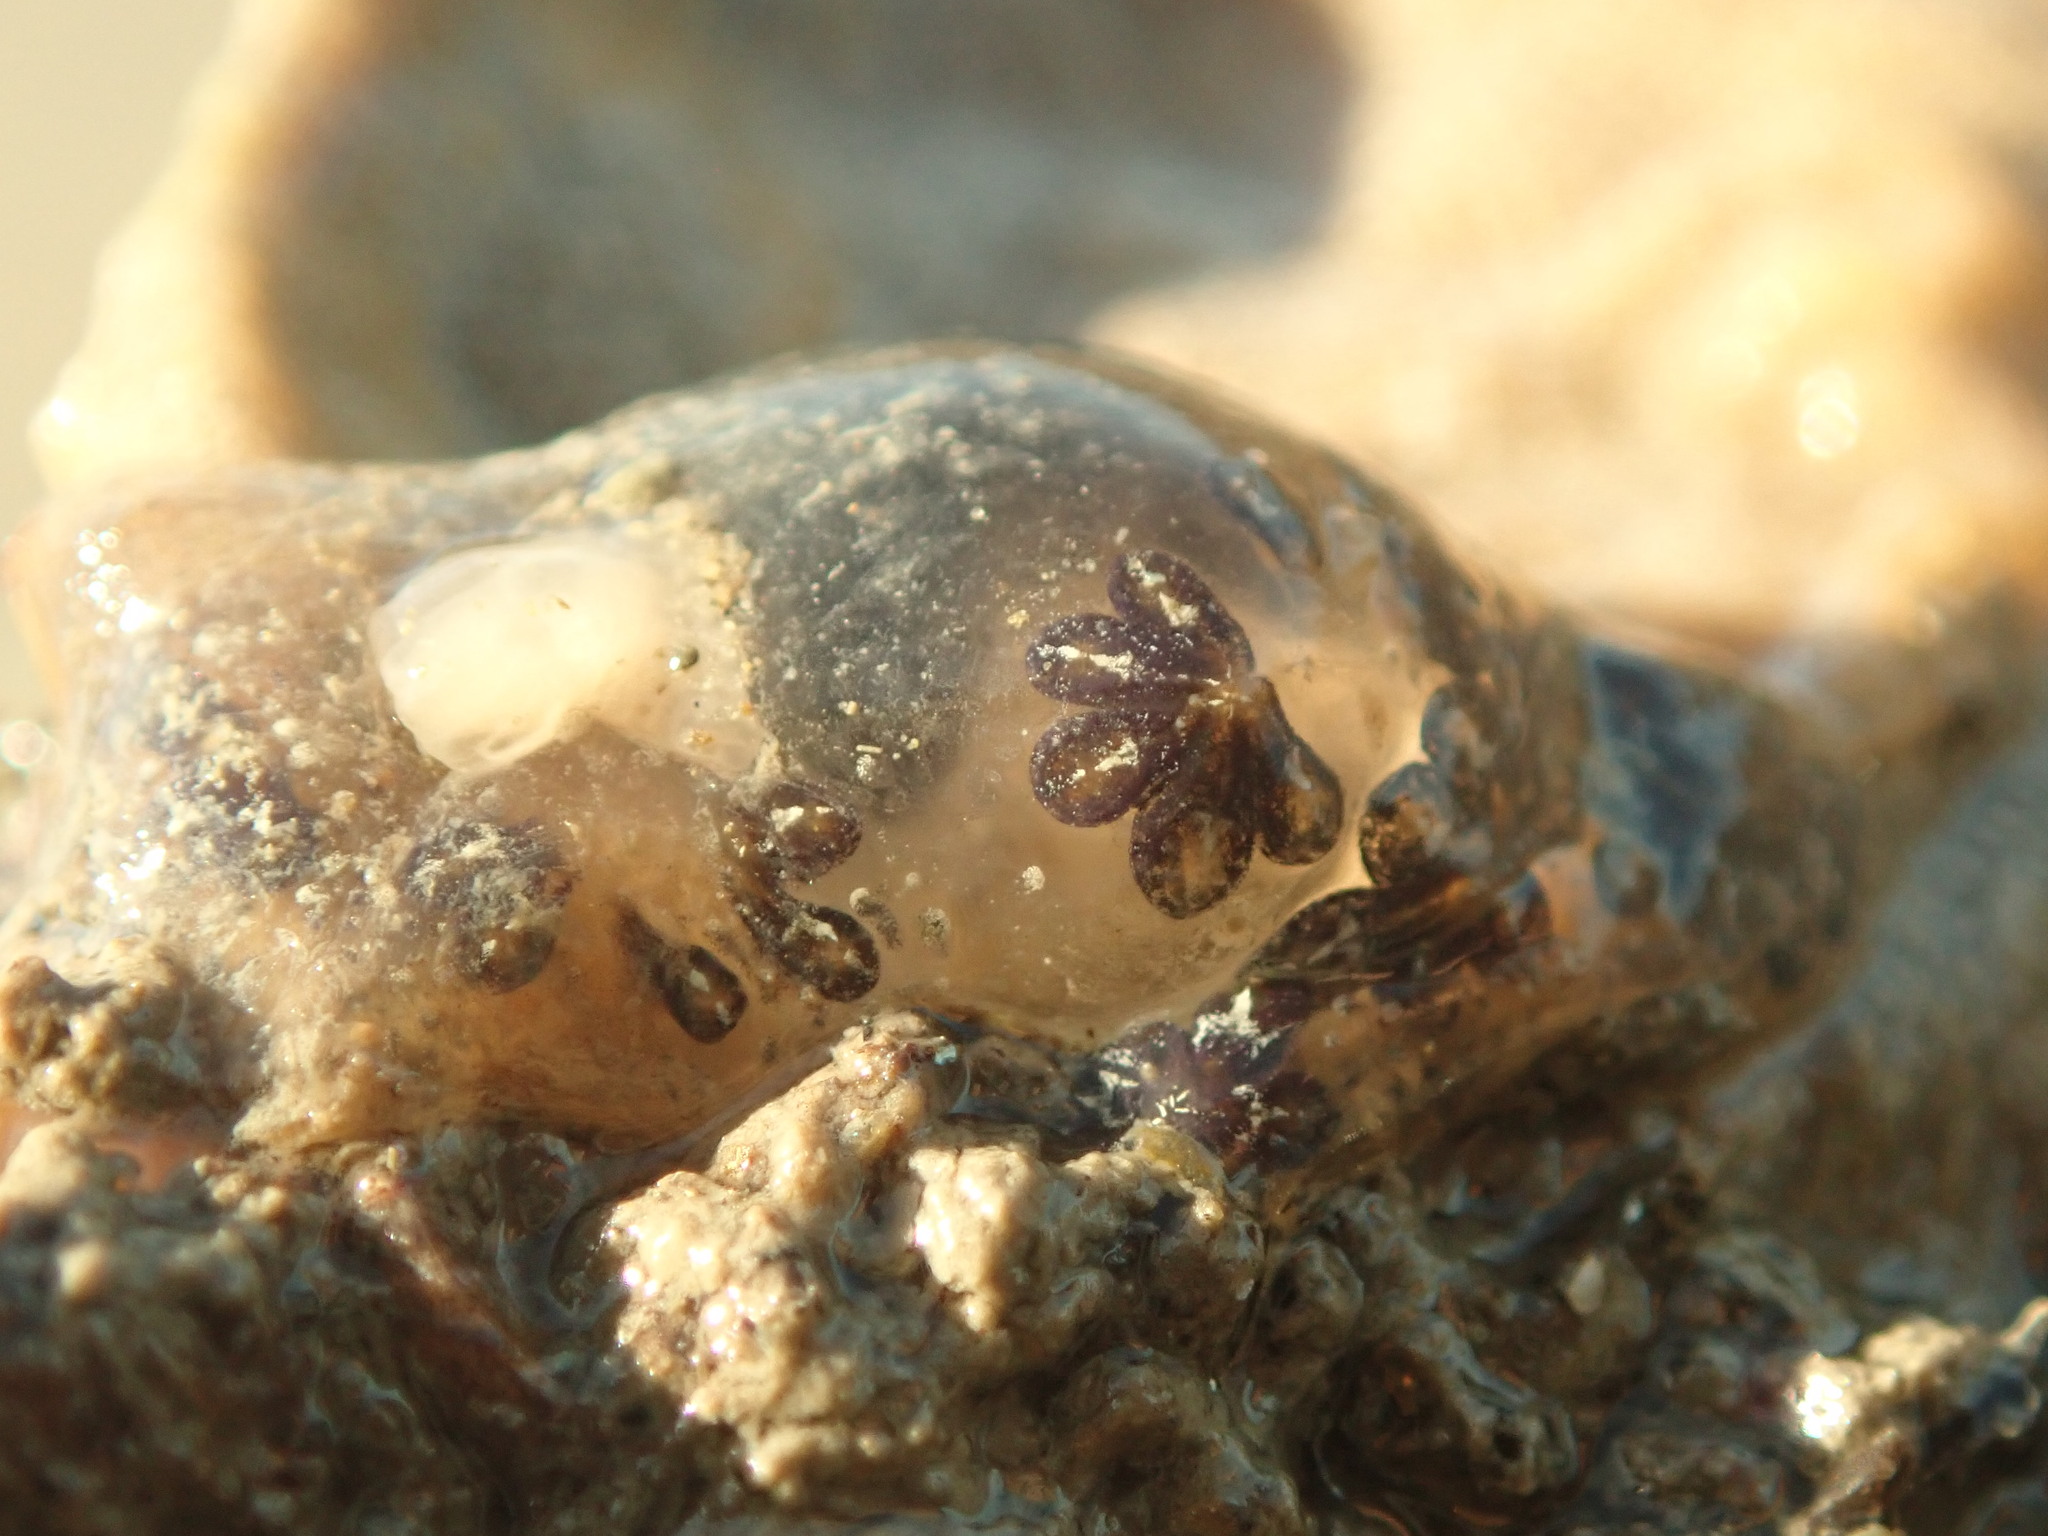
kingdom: Animalia
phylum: Chordata
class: Ascidiacea
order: Stolidobranchia
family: Styelidae
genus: Botryllus
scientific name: Botryllus schlosseri
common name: Golden star tunicate
